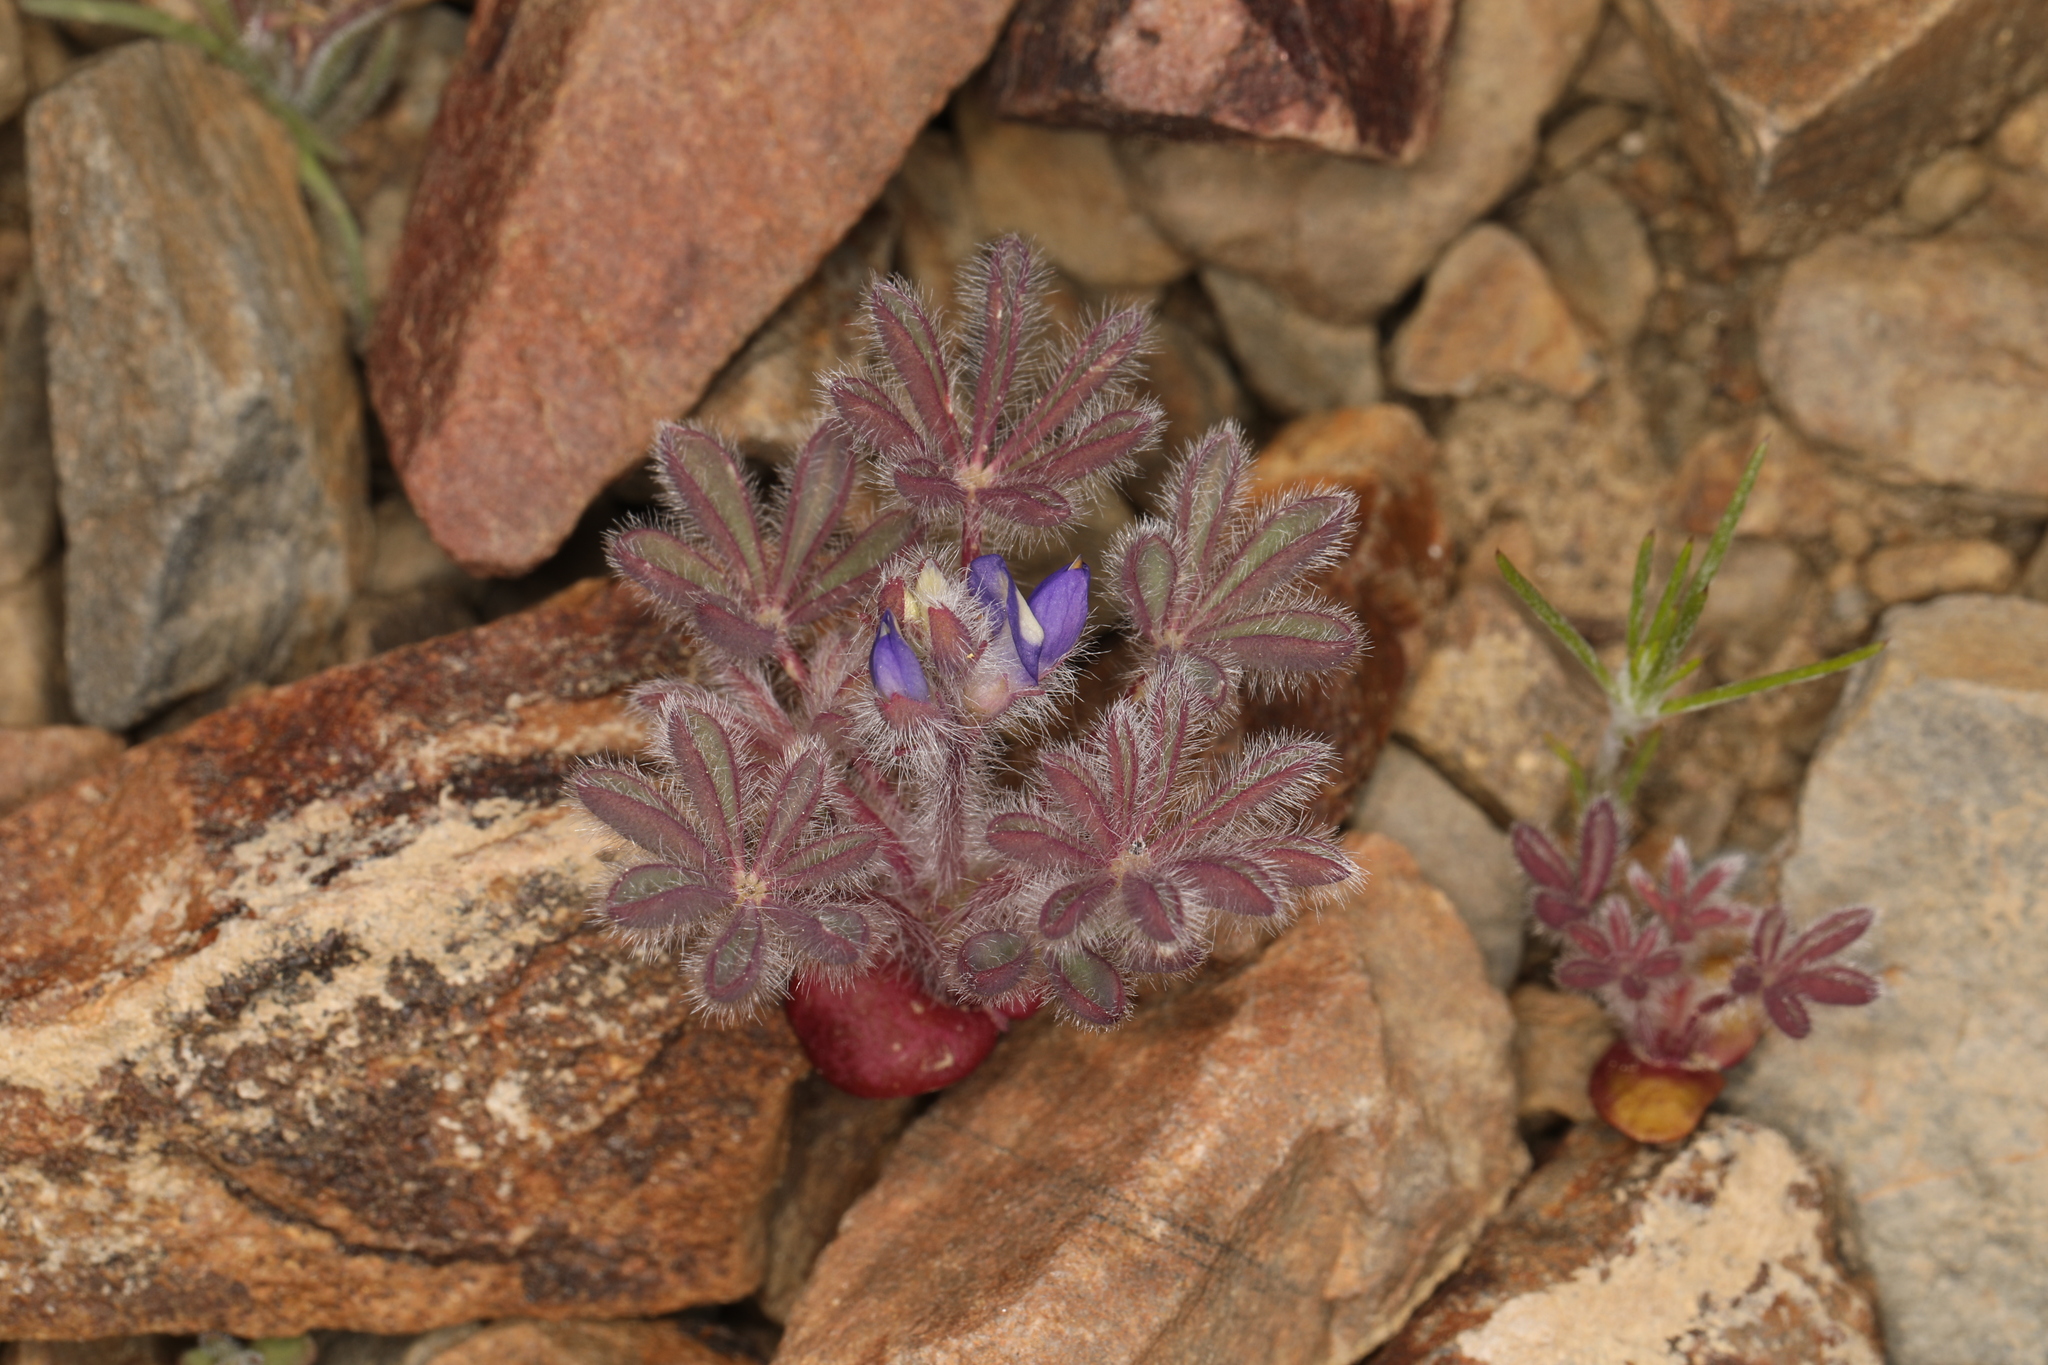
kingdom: Plantae
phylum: Tracheophyta
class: Magnoliopsida
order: Fabales
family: Fabaceae
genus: Lupinus
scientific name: Lupinus brevicaulis
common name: Sand lupine
